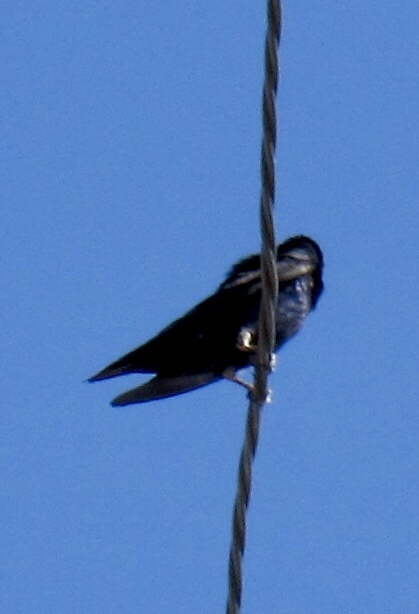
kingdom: Animalia
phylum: Chordata
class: Aves
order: Passeriformes
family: Hirundinidae
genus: Progne
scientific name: Progne subis
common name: Purple martin
